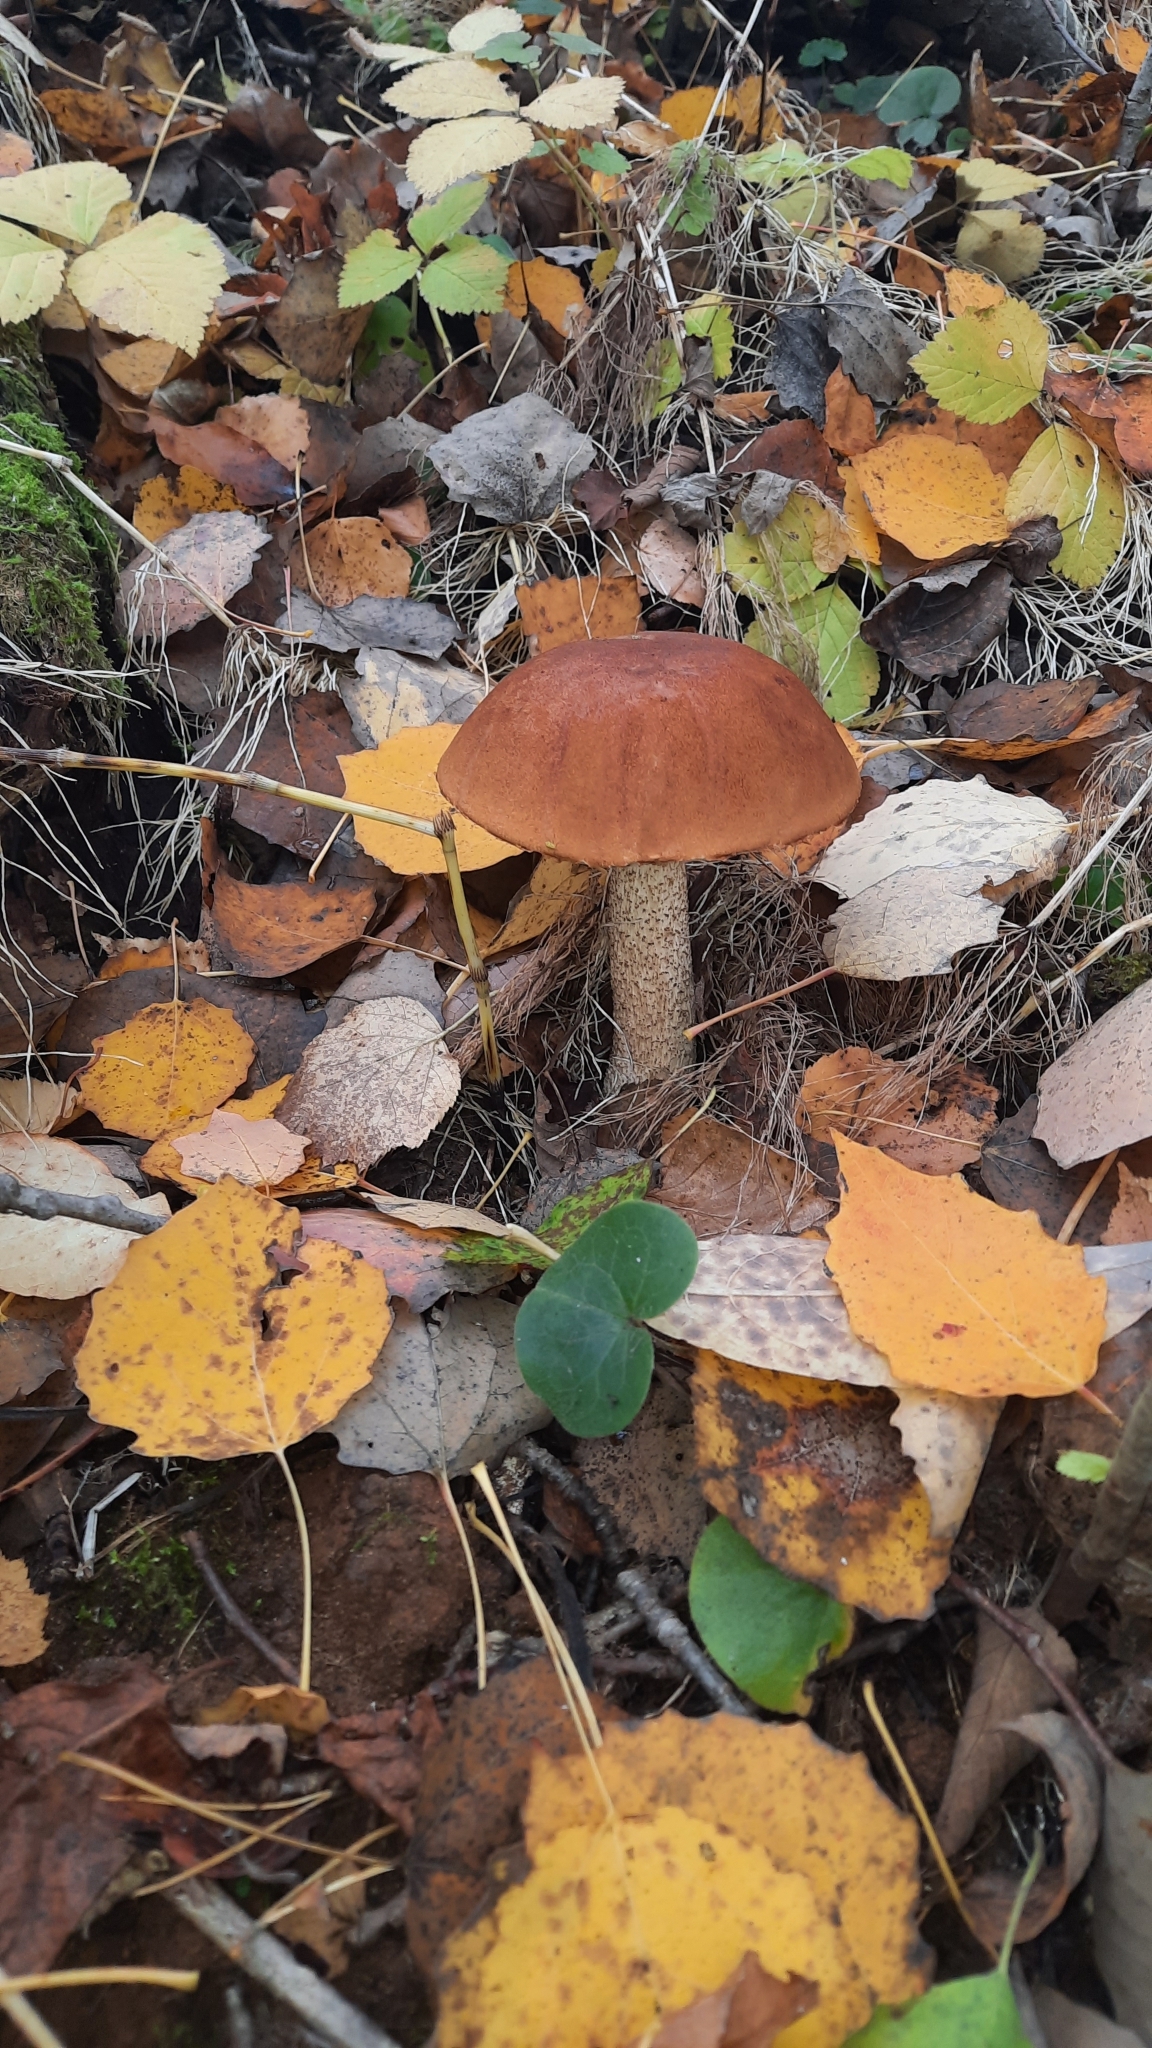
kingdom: Fungi
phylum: Basidiomycota
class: Agaricomycetes
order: Boletales
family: Boletaceae
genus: Leccinum
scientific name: Leccinum aurantiacum
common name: Orange bolete
